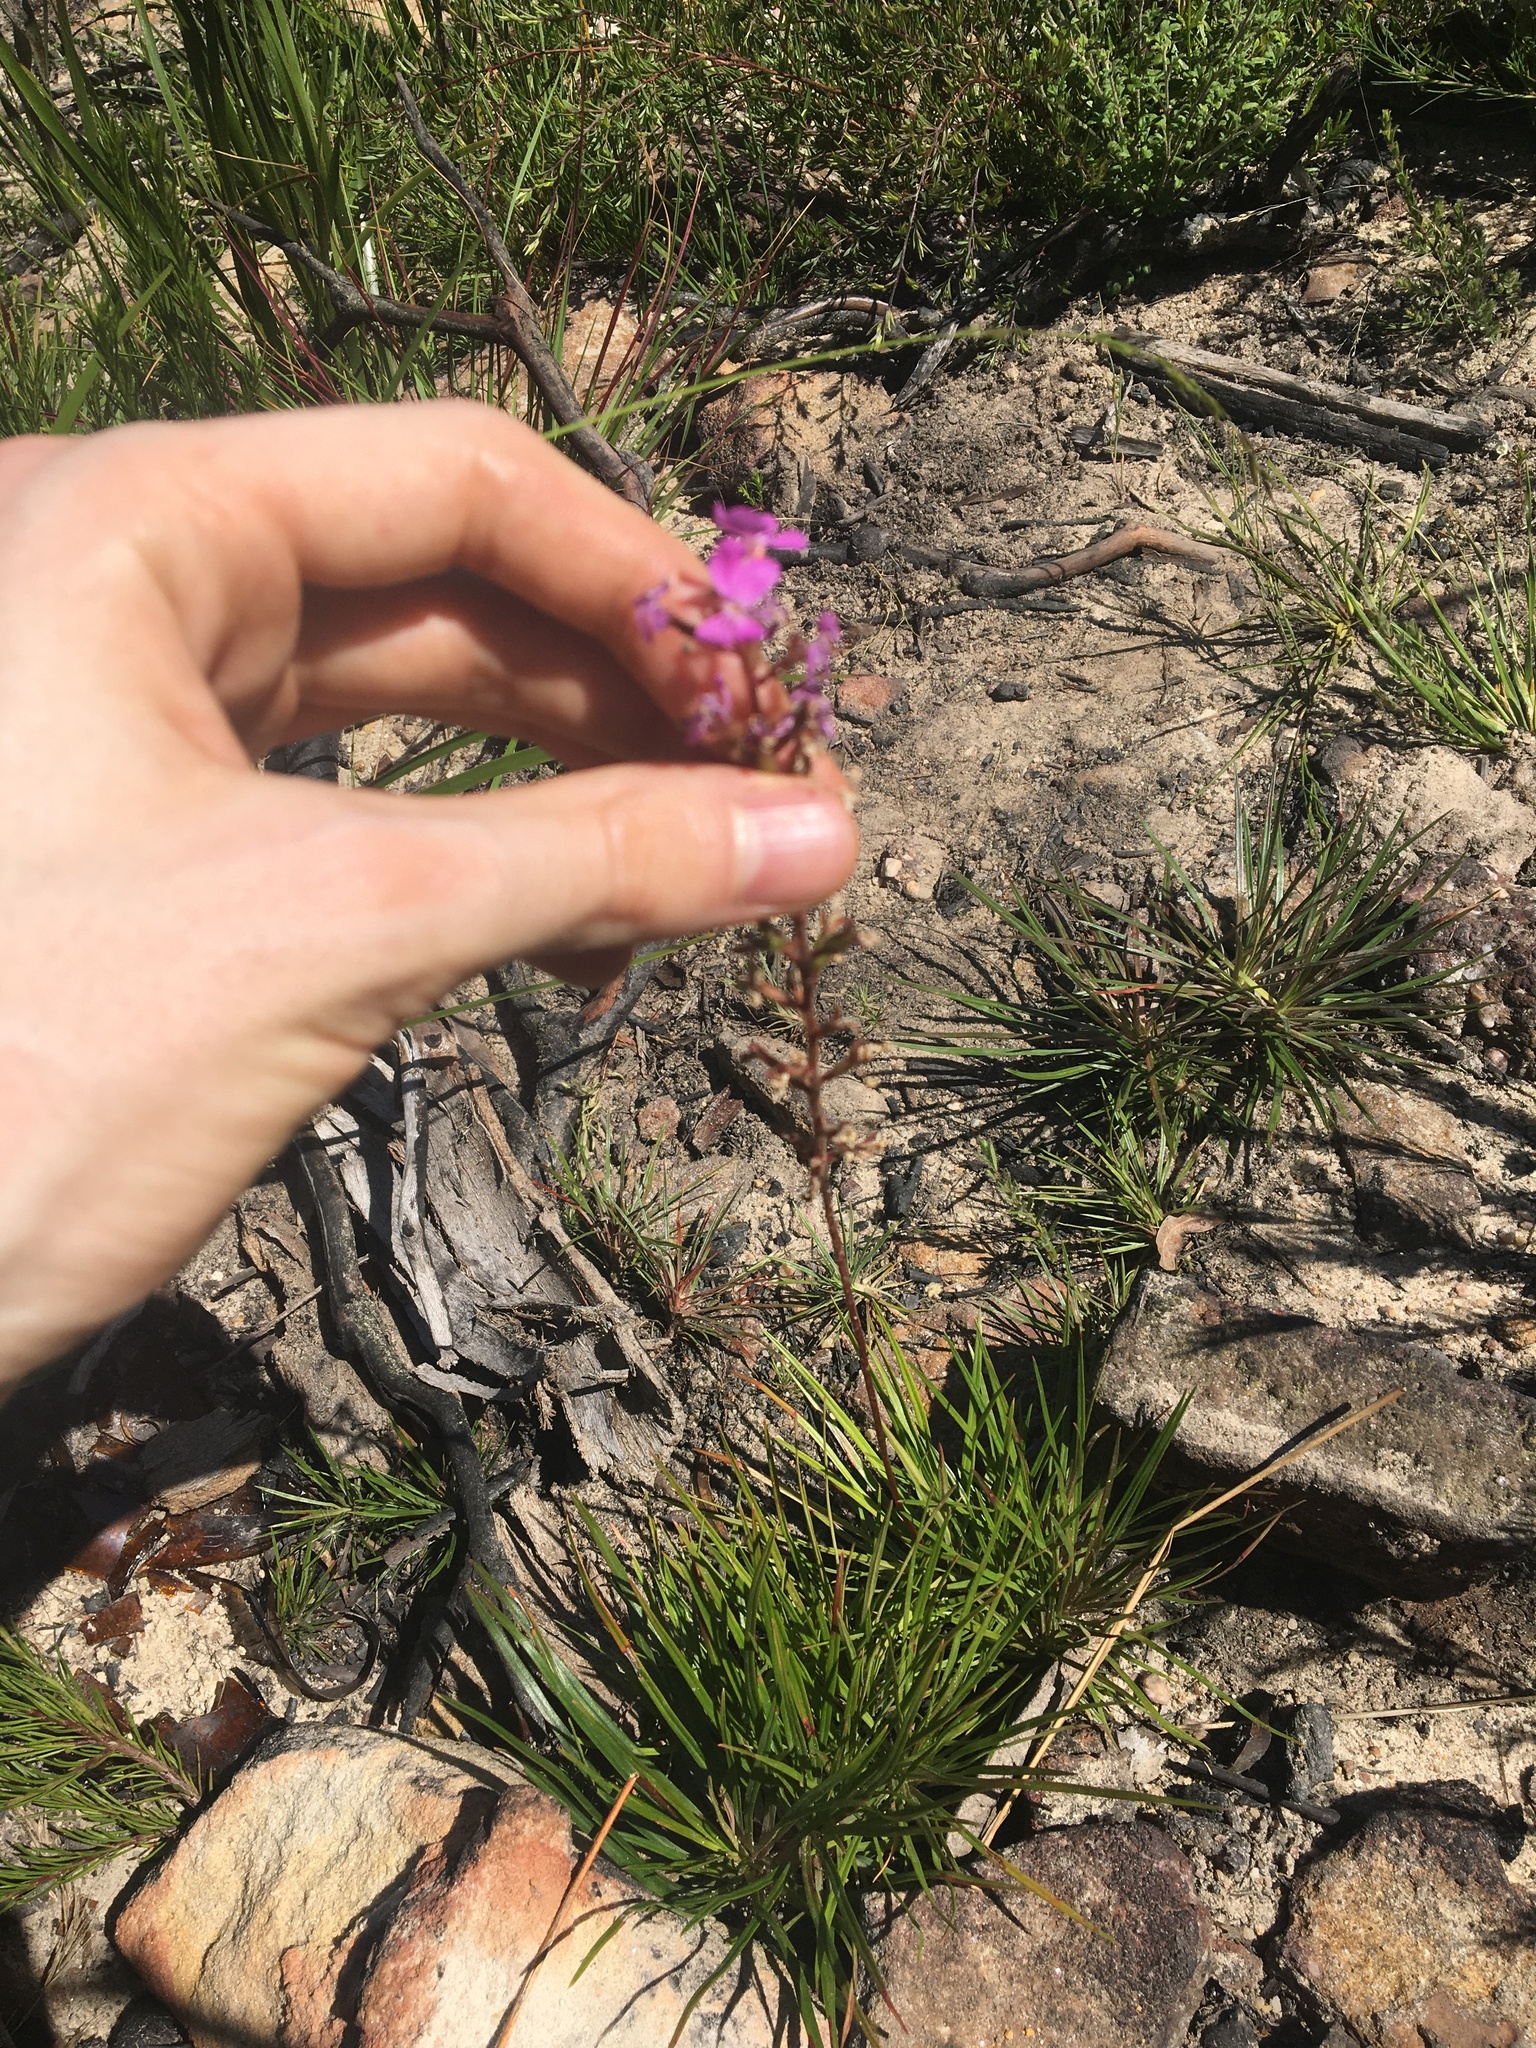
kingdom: Plantae
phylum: Tracheophyta
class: Magnoliopsida
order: Asterales
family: Stylidiaceae
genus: Stylidium
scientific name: Stylidium graminifolium
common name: Grass triggerplant
